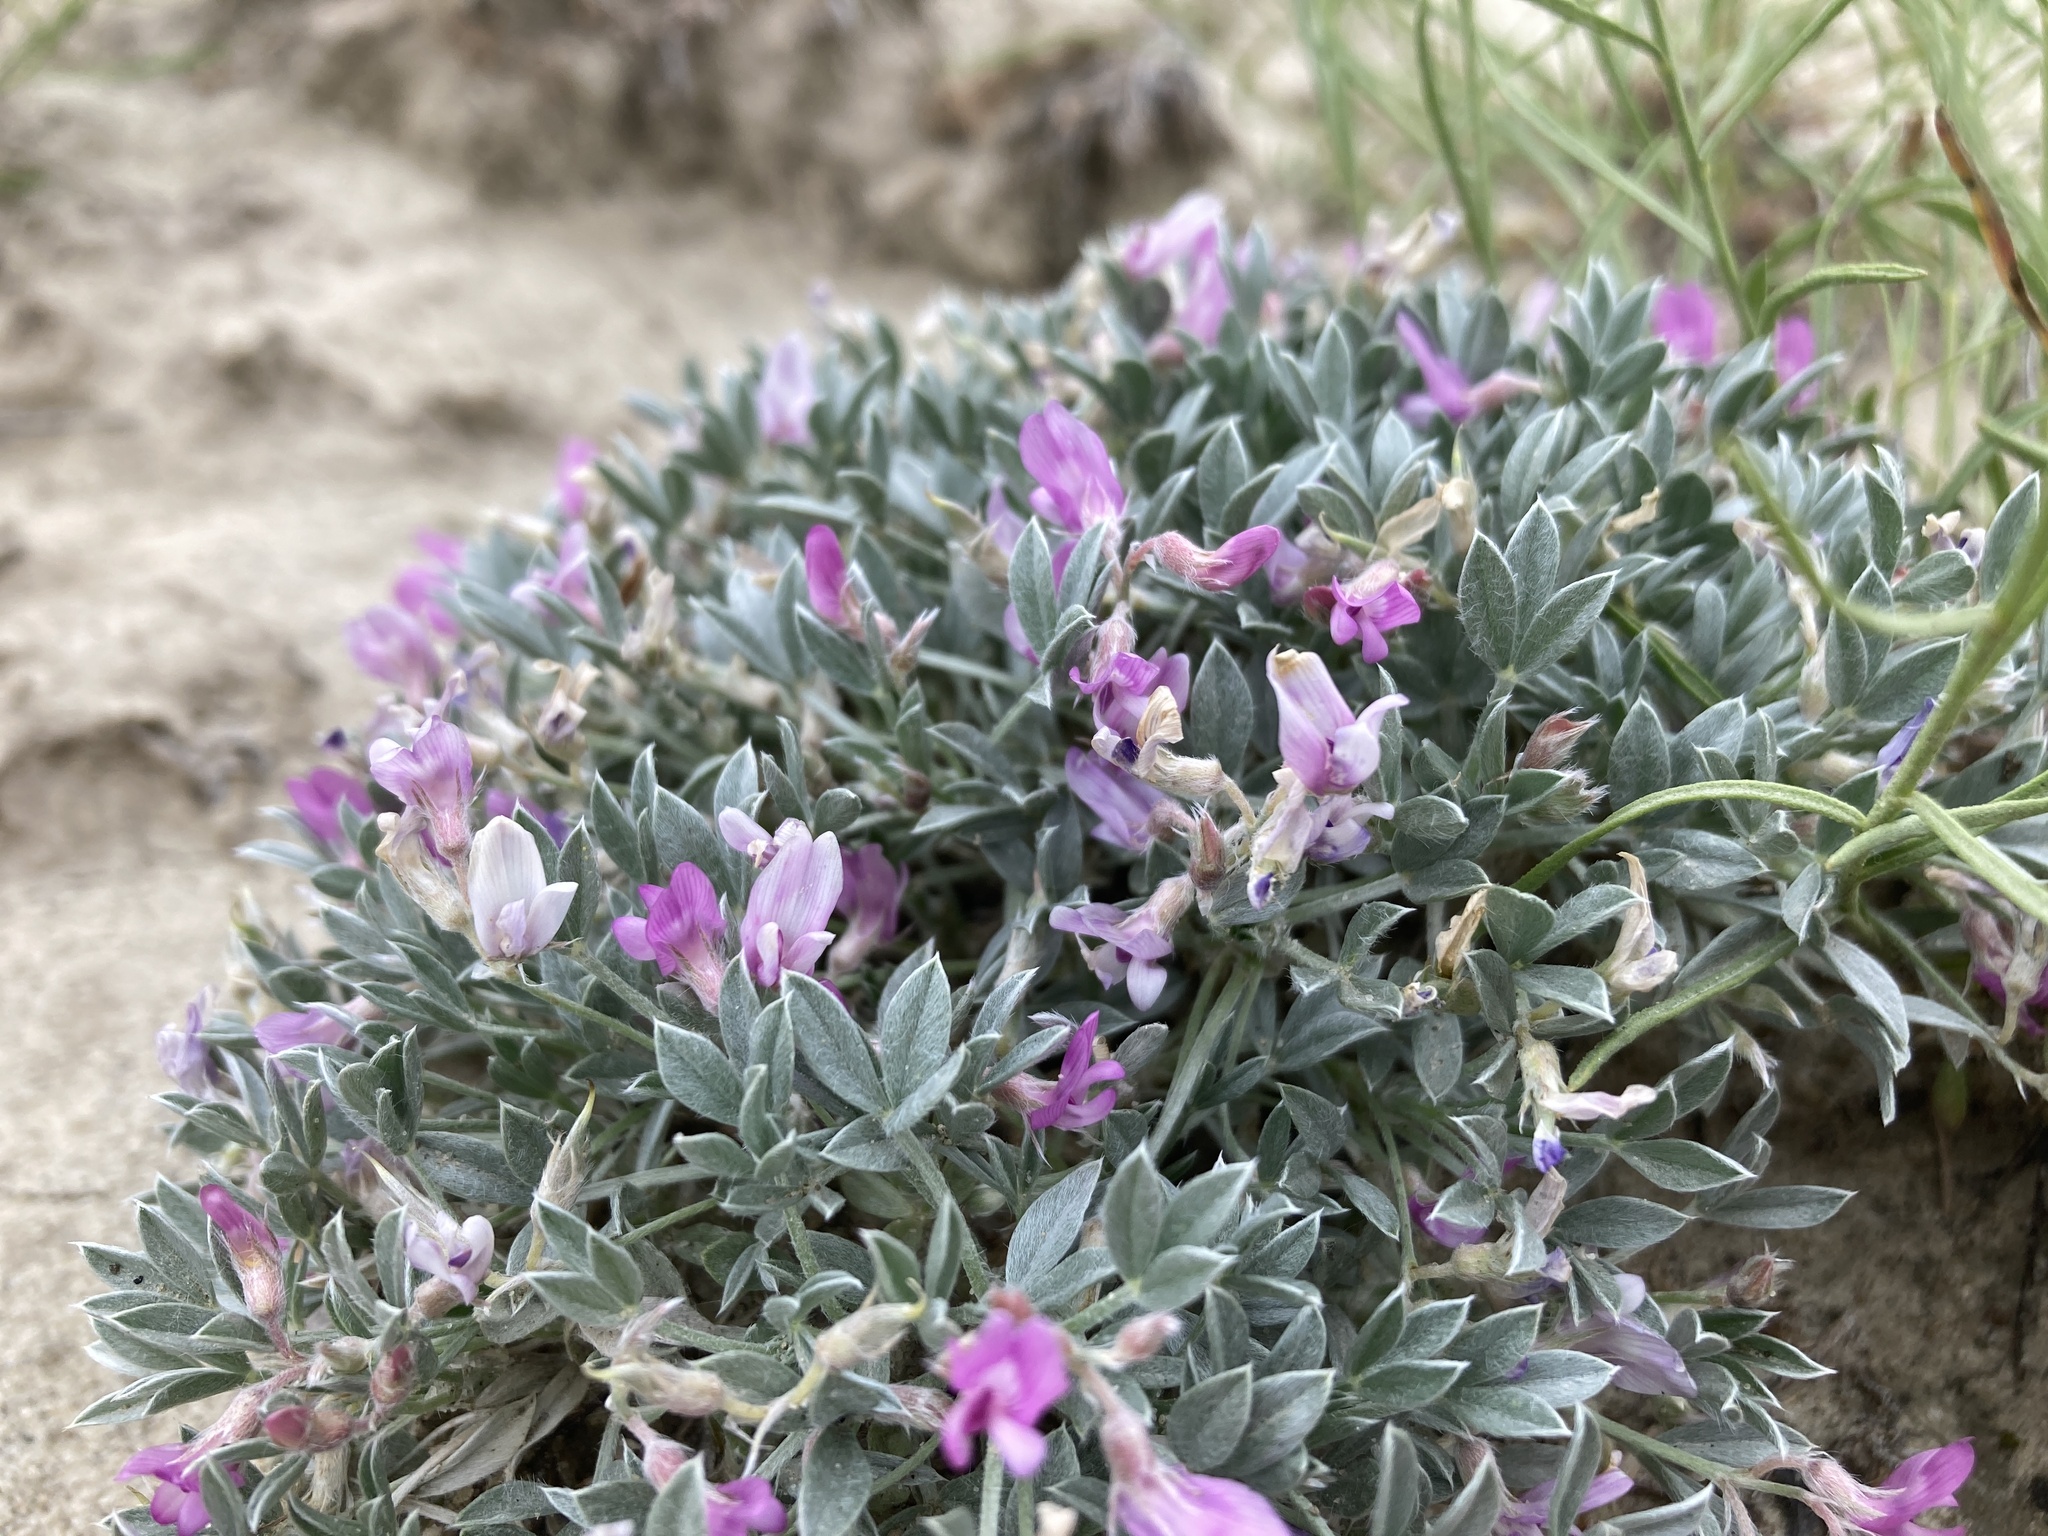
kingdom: Plantae
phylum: Tracheophyta
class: Magnoliopsida
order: Fabales
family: Fabaceae
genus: Astragalus
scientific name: Astragalus sericoleucus
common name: Silky orophaca
